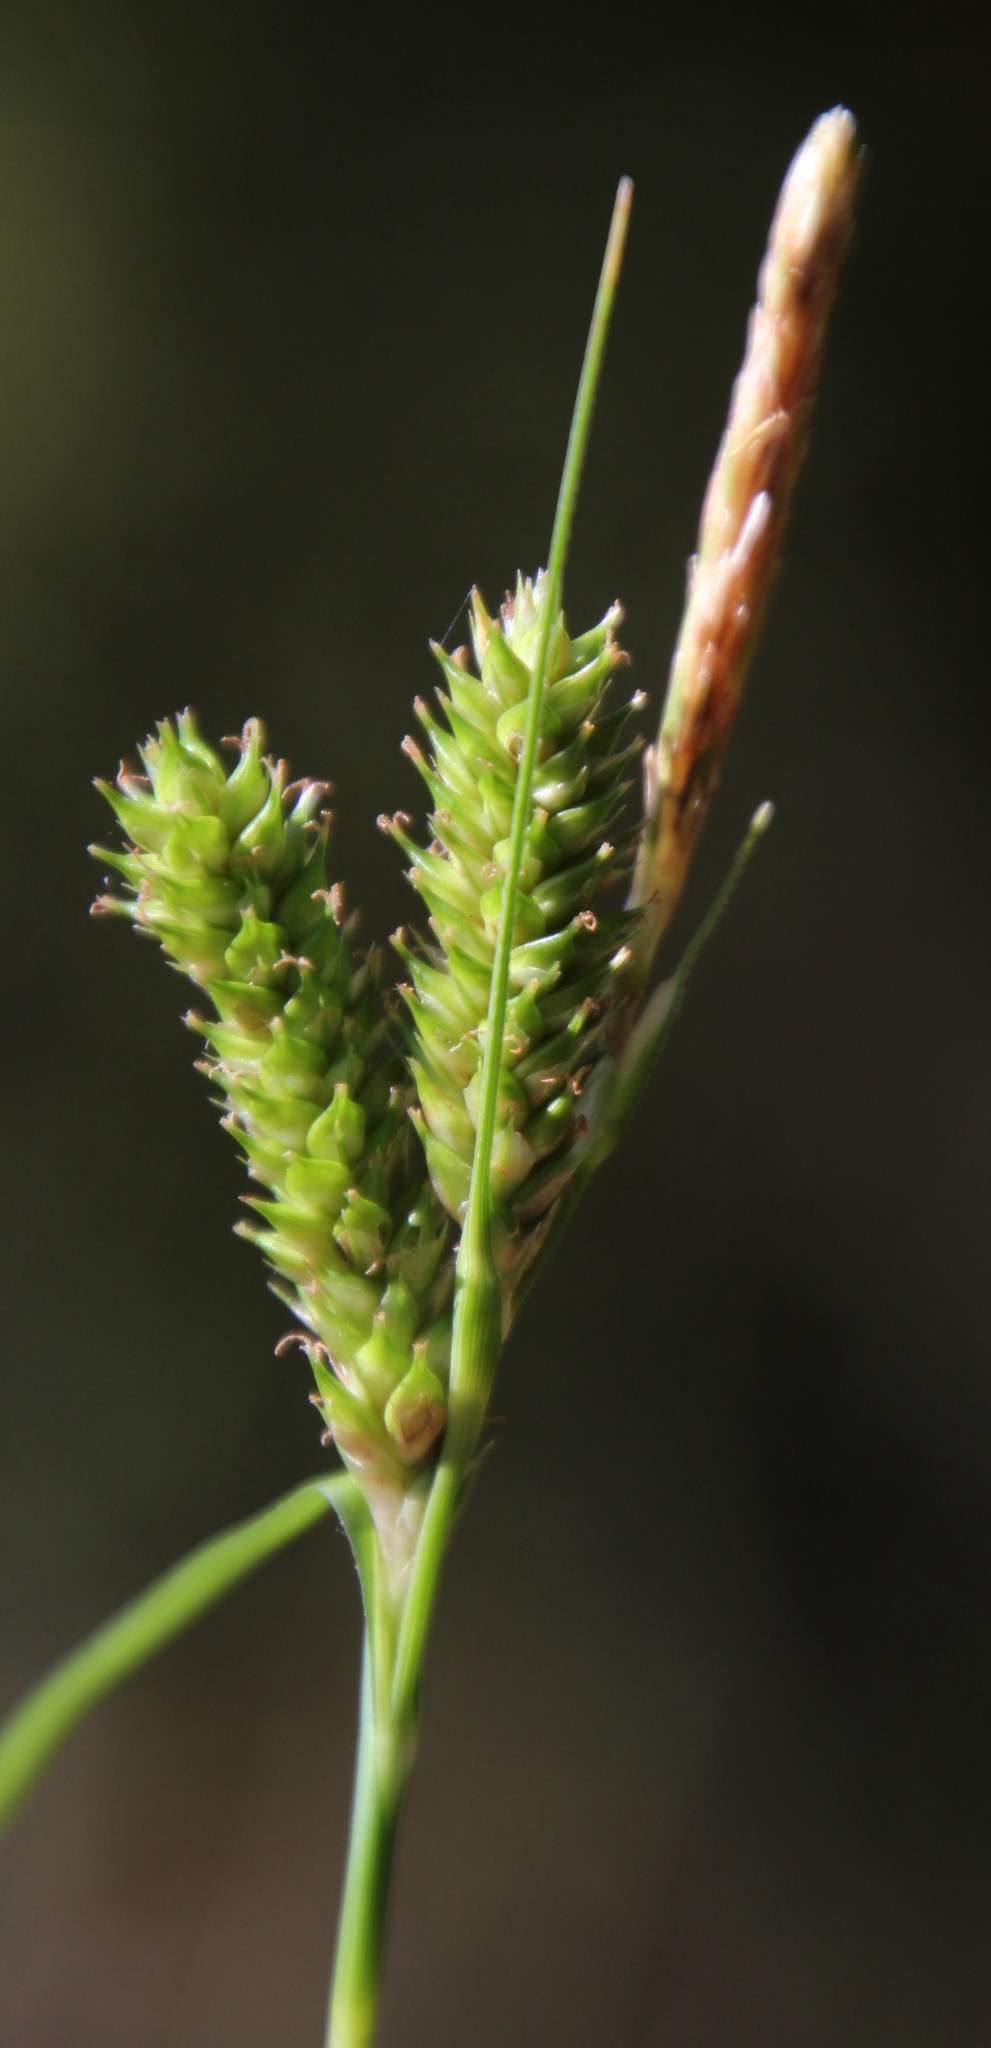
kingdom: Plantae
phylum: Tracheophyta
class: Liliopsida
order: Poales
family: Cyperaceae
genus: Carex
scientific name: Carex aethiopica
